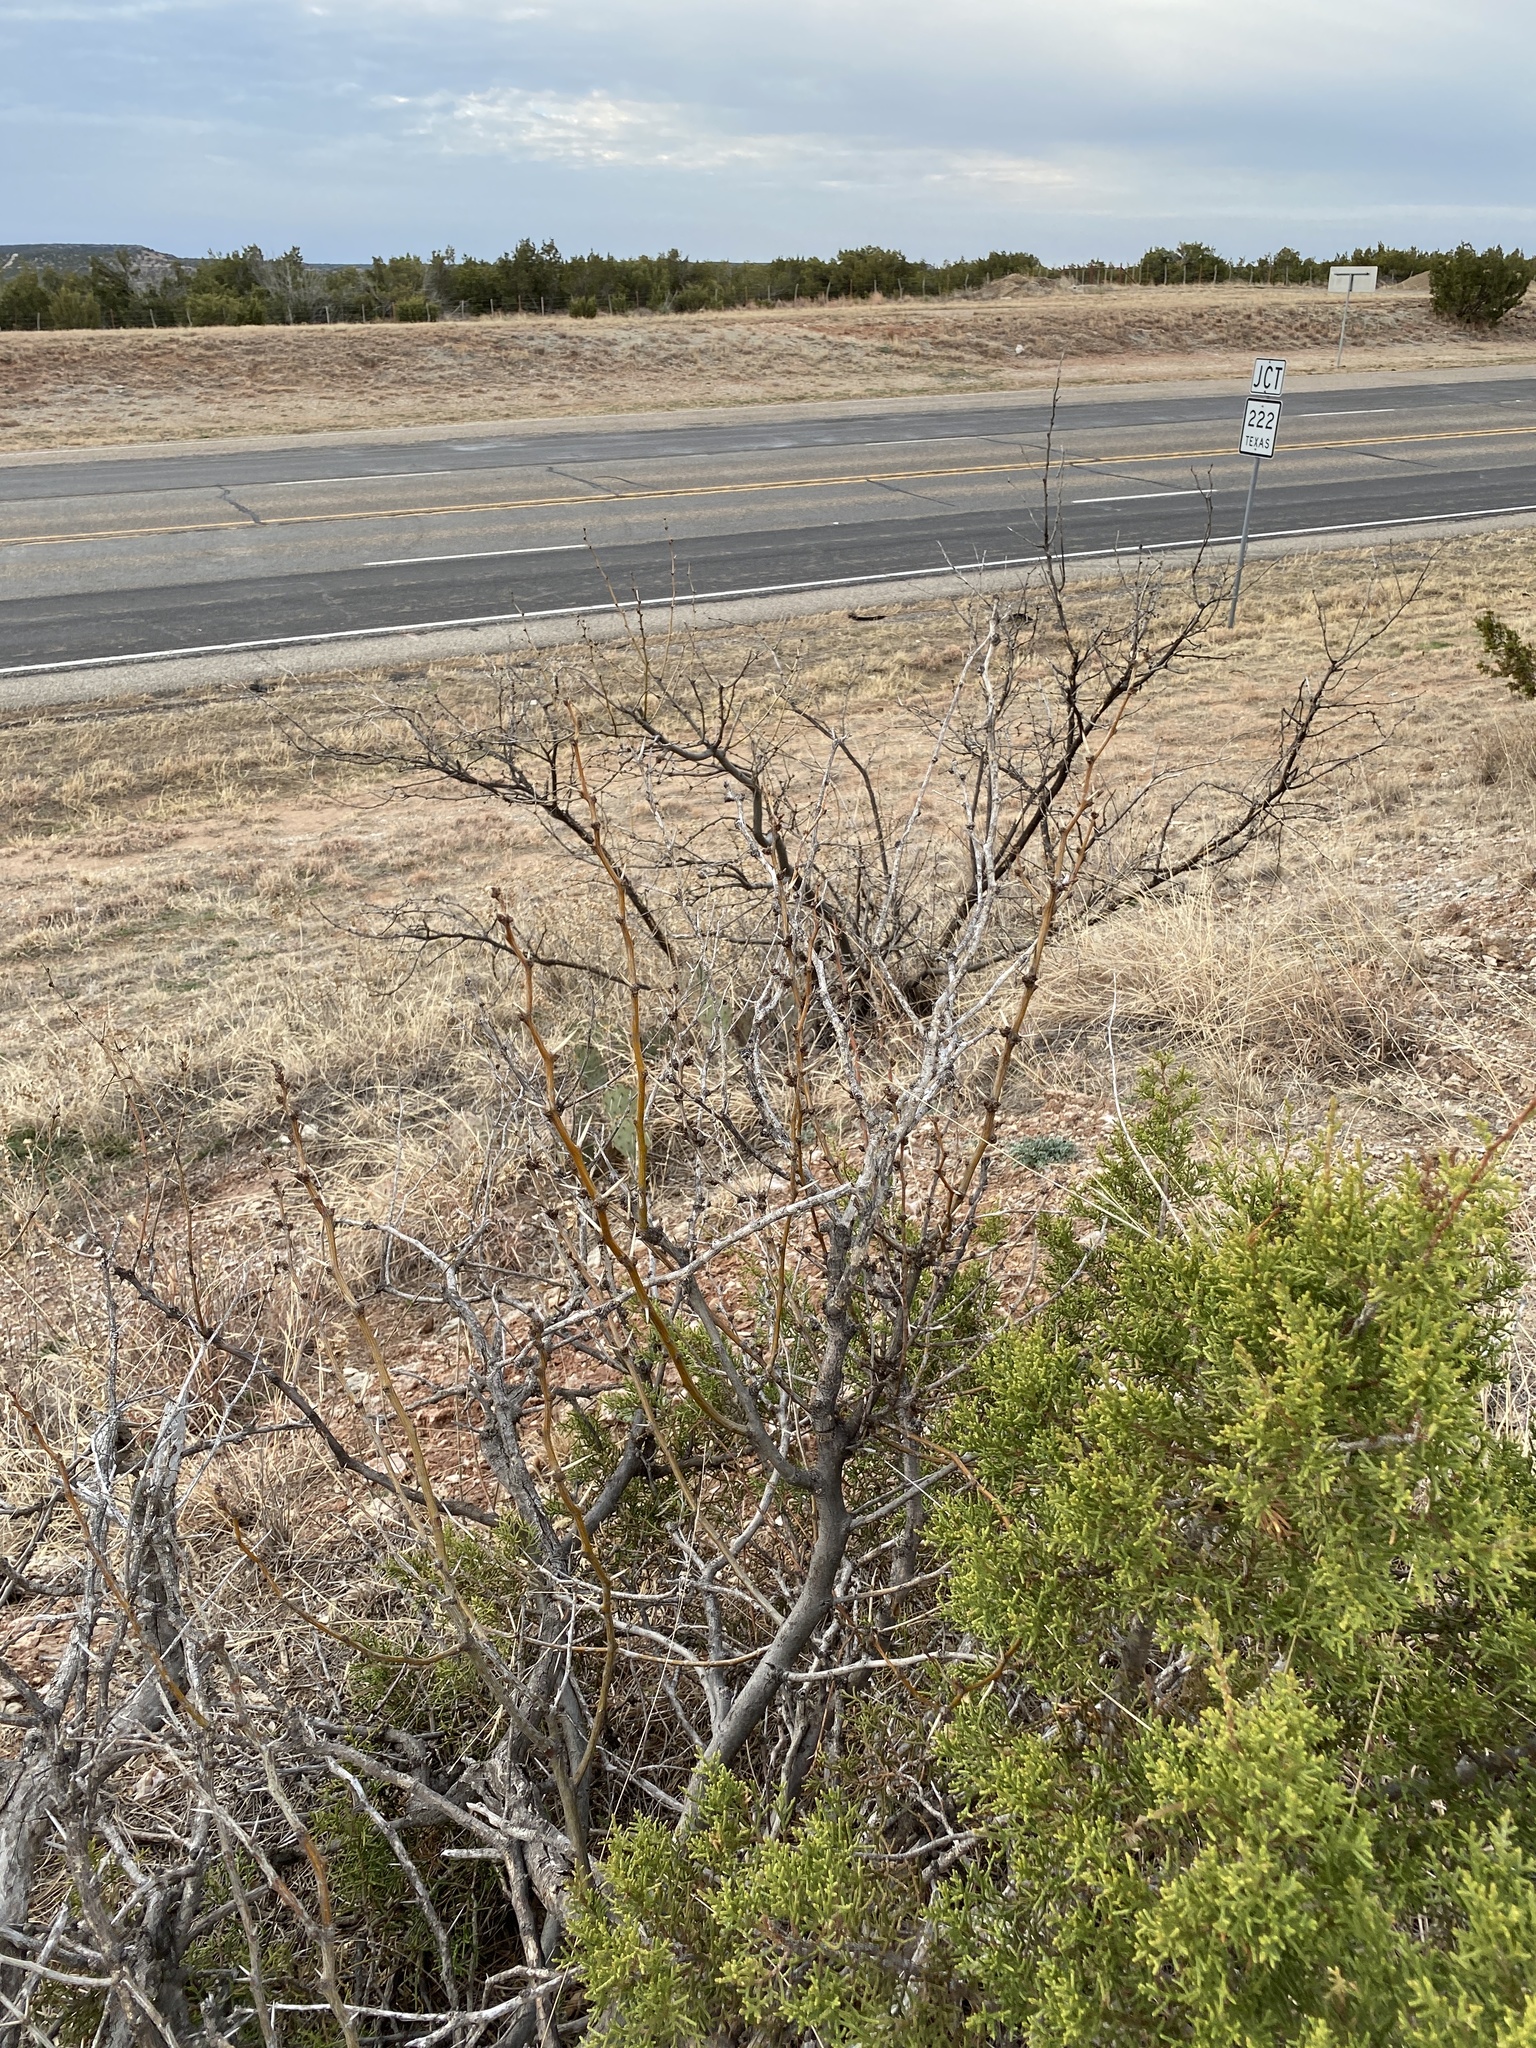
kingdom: Plantae
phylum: Tracheophyta
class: Magnoliopsida
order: Fabales
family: Fabaceae
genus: Prosopis
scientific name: Prosopis glandulosa
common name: Honey mesquite
